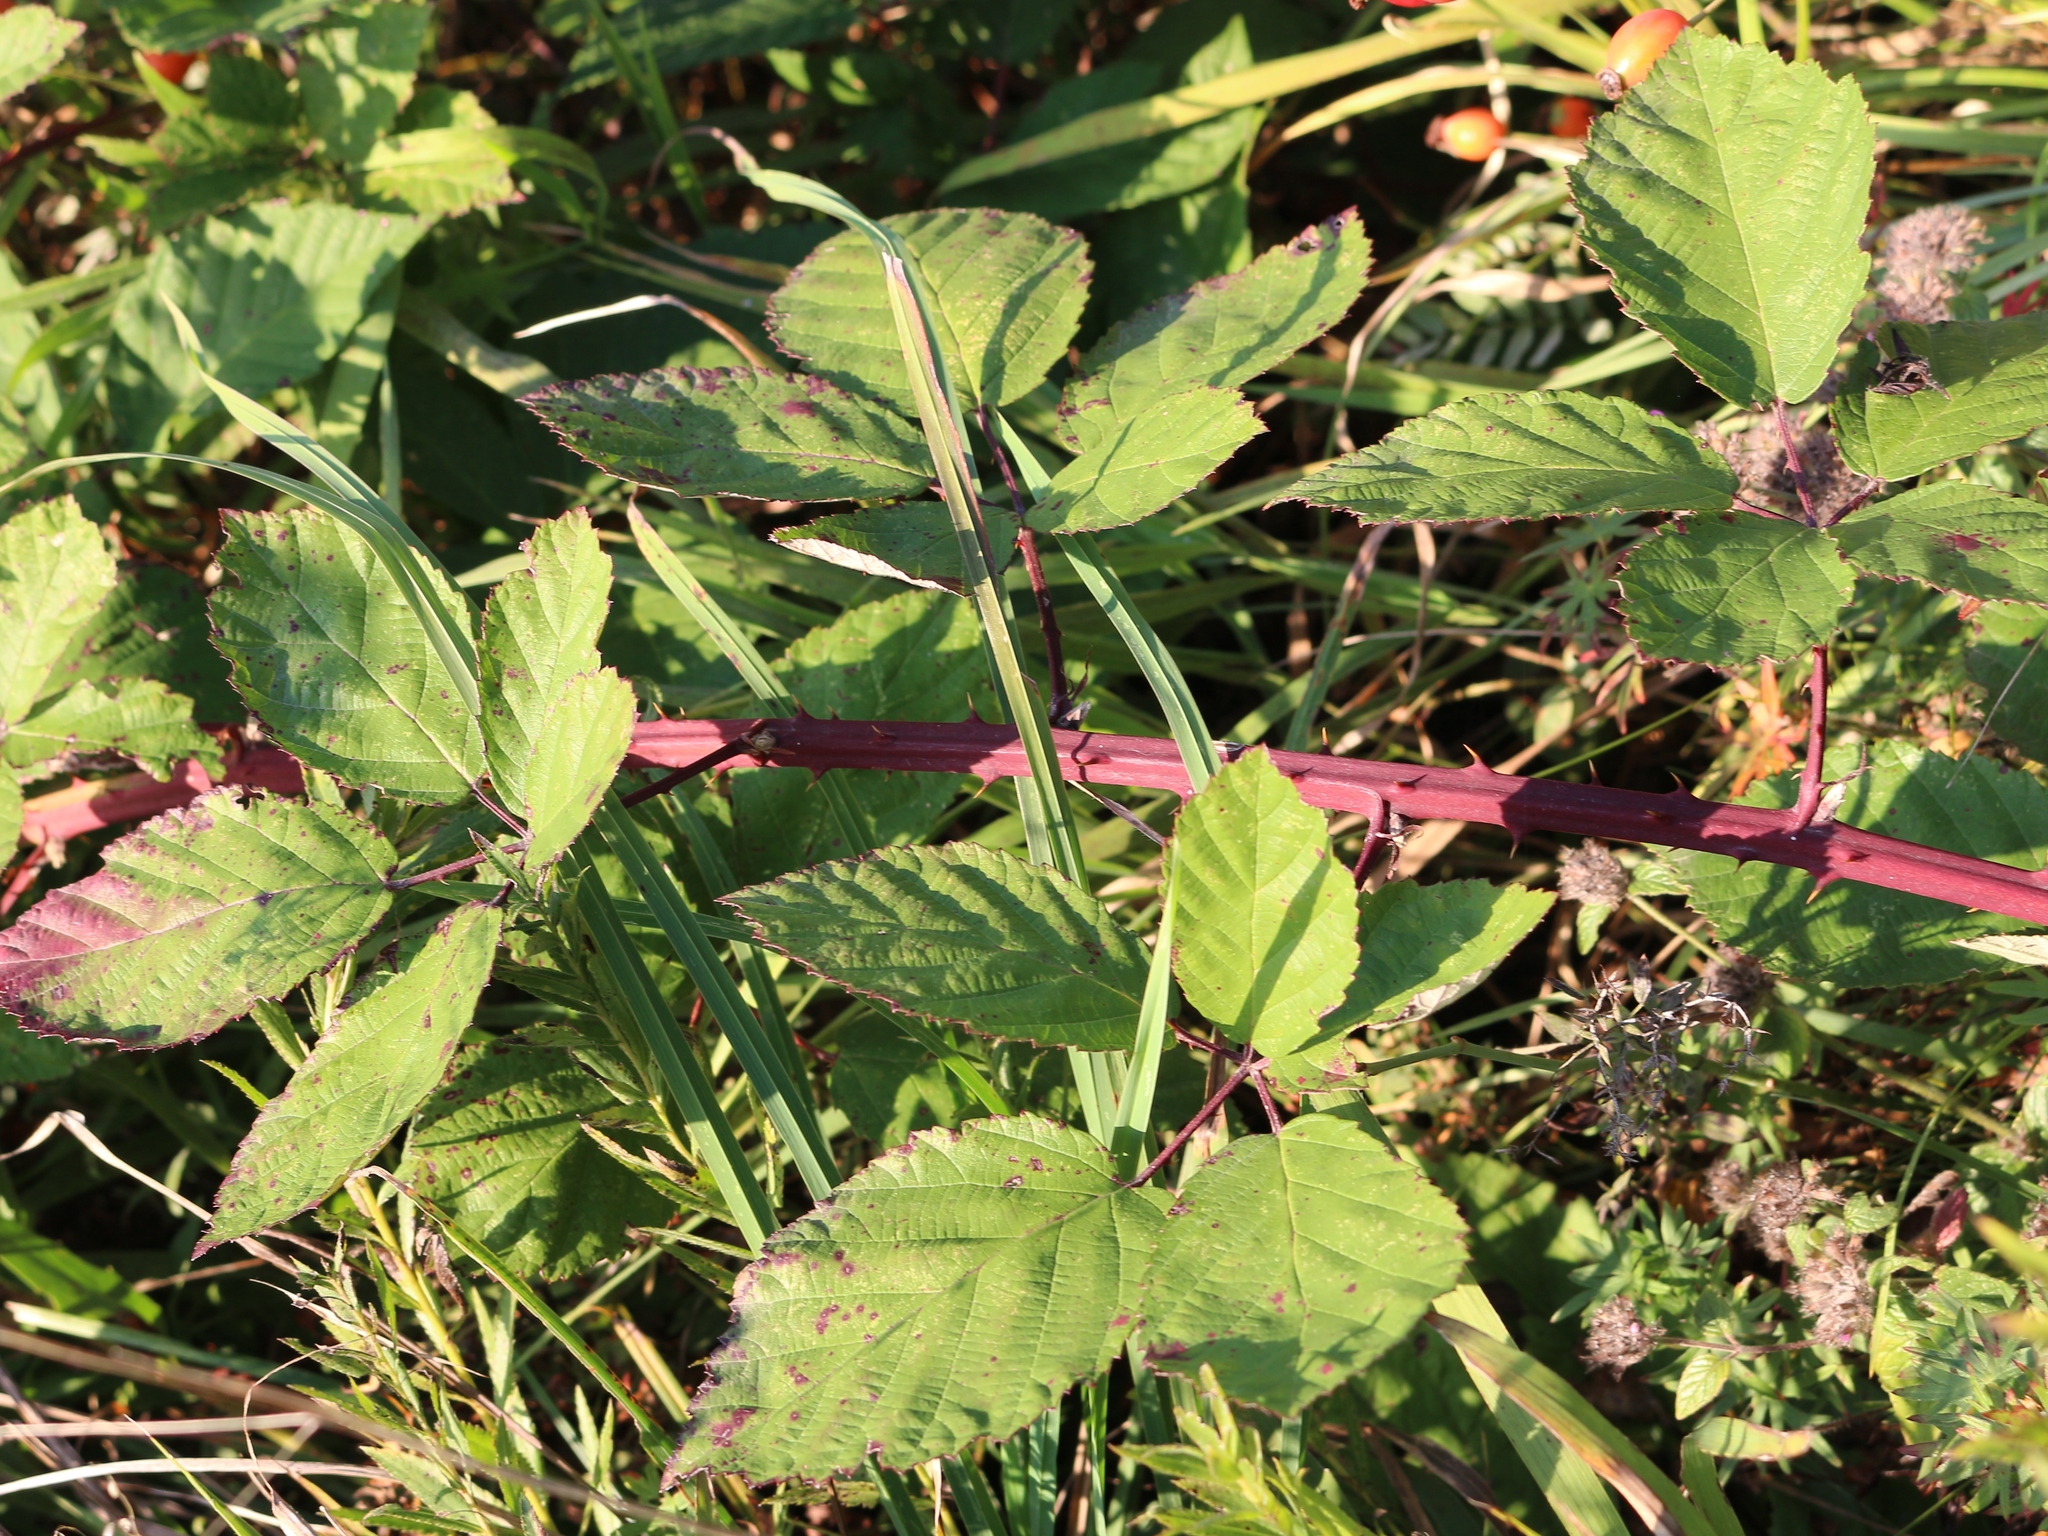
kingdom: Plantae
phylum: Tracheophyta
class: Magnoliopsida
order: Rosales
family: Rosaceae
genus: Rubus
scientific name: Rubus ibericus
